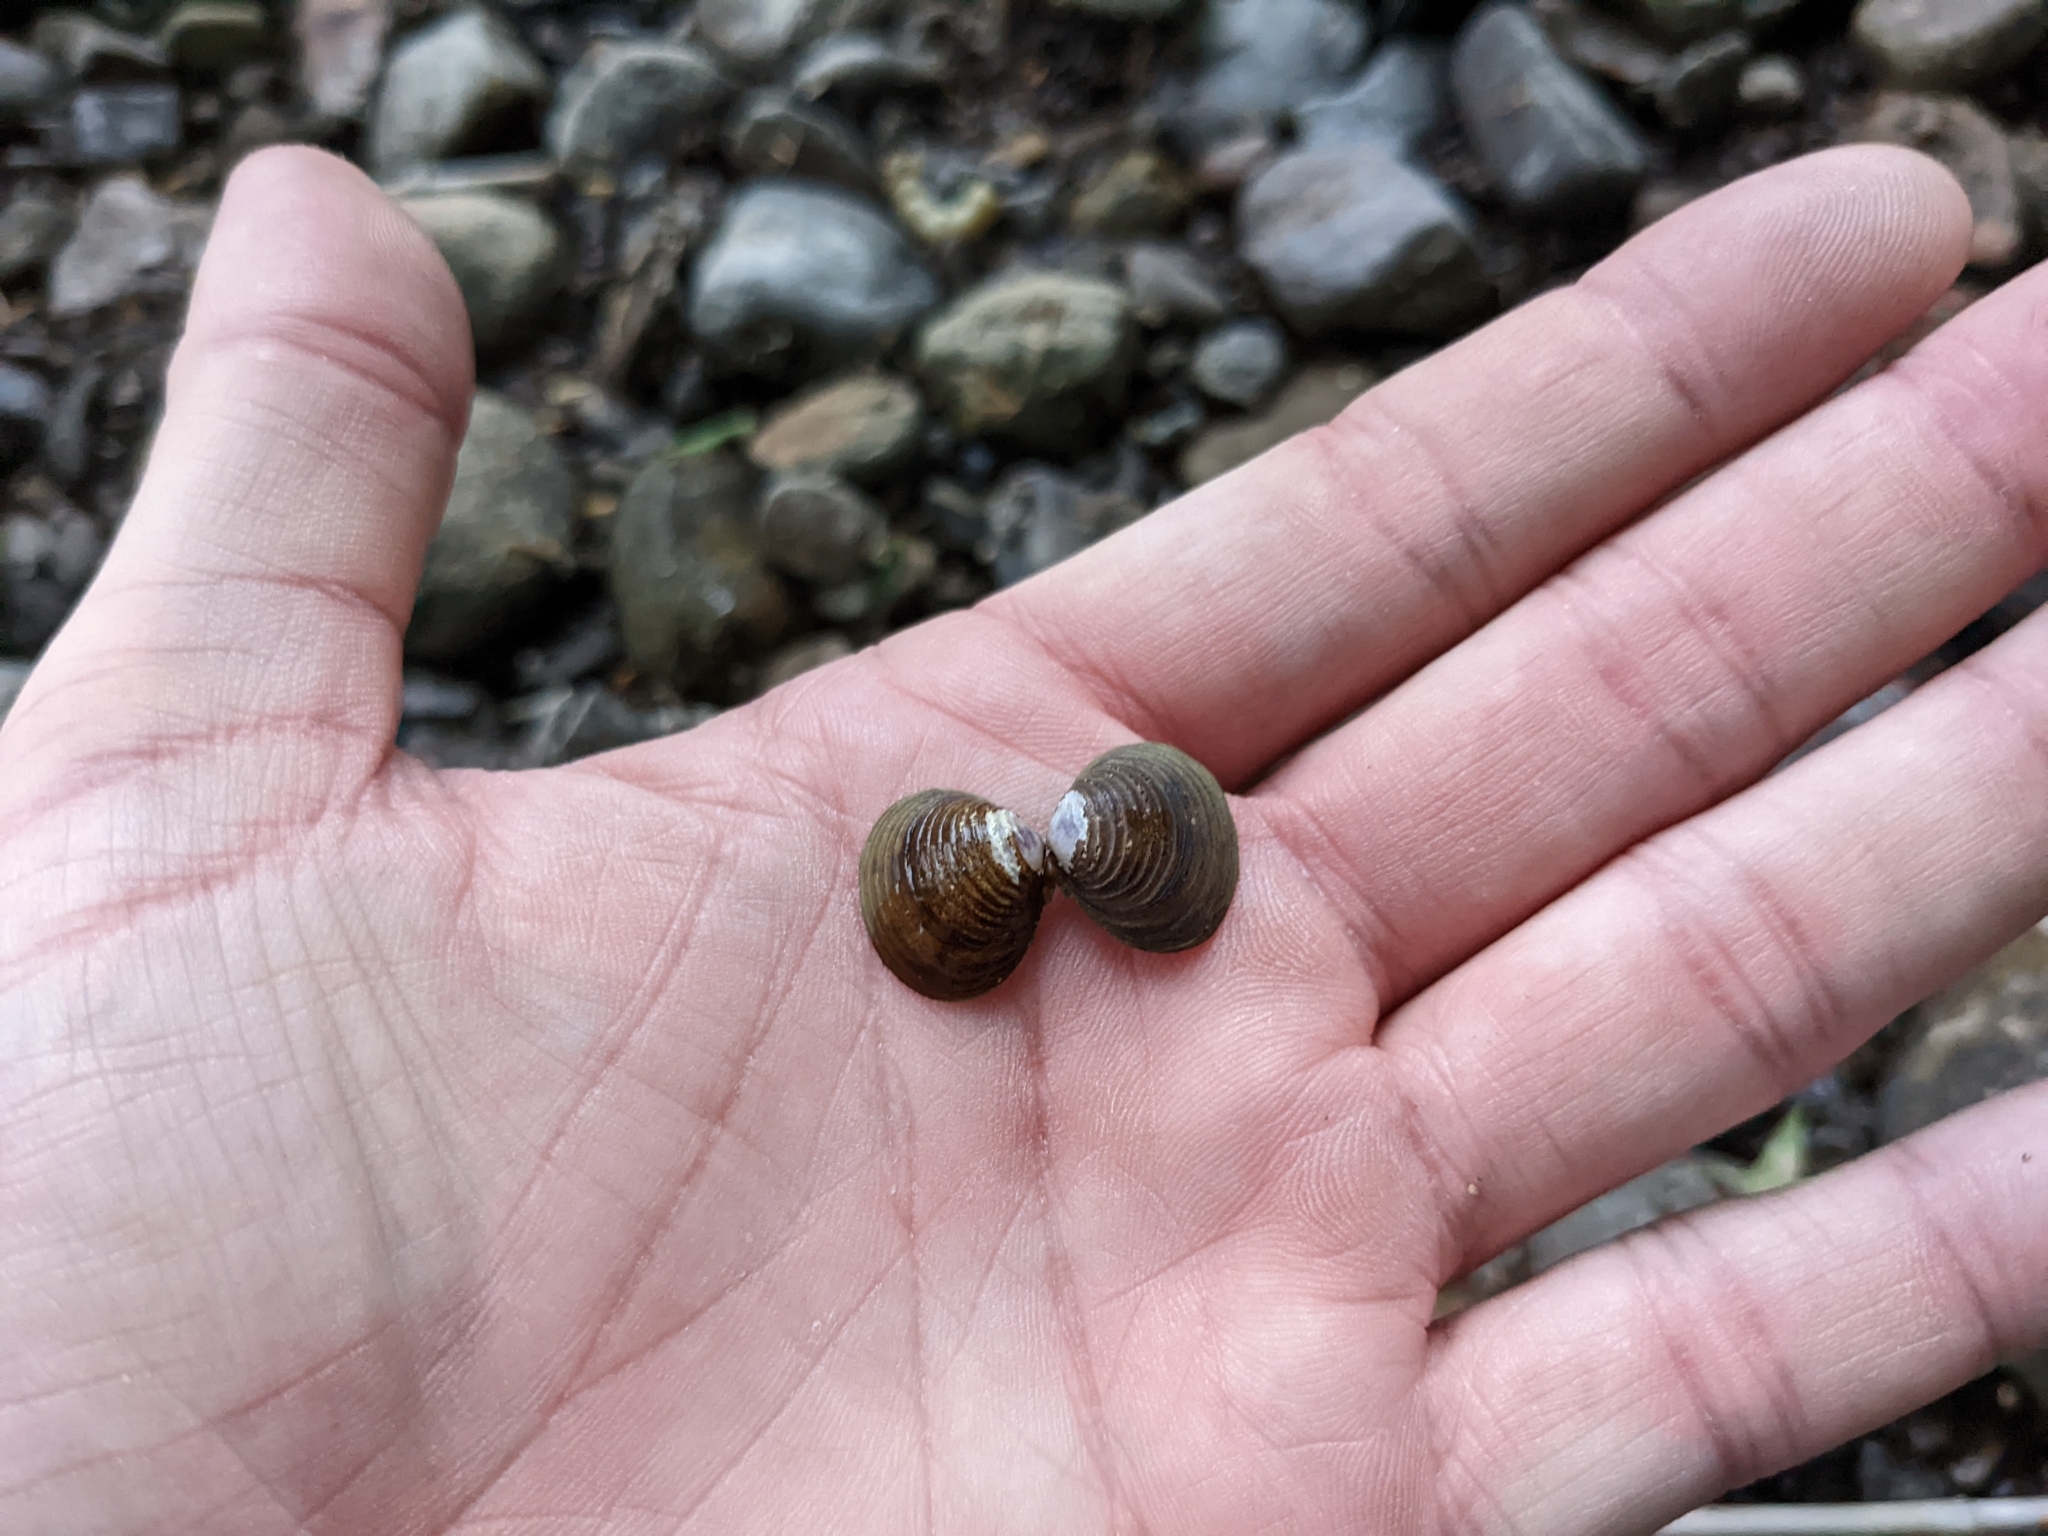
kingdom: Animalia
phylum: Mollusca
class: Bivalvia
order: Venerida
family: Cyrenidae
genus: Corbicula
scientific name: Corbicula fluminea
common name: Asian clam
